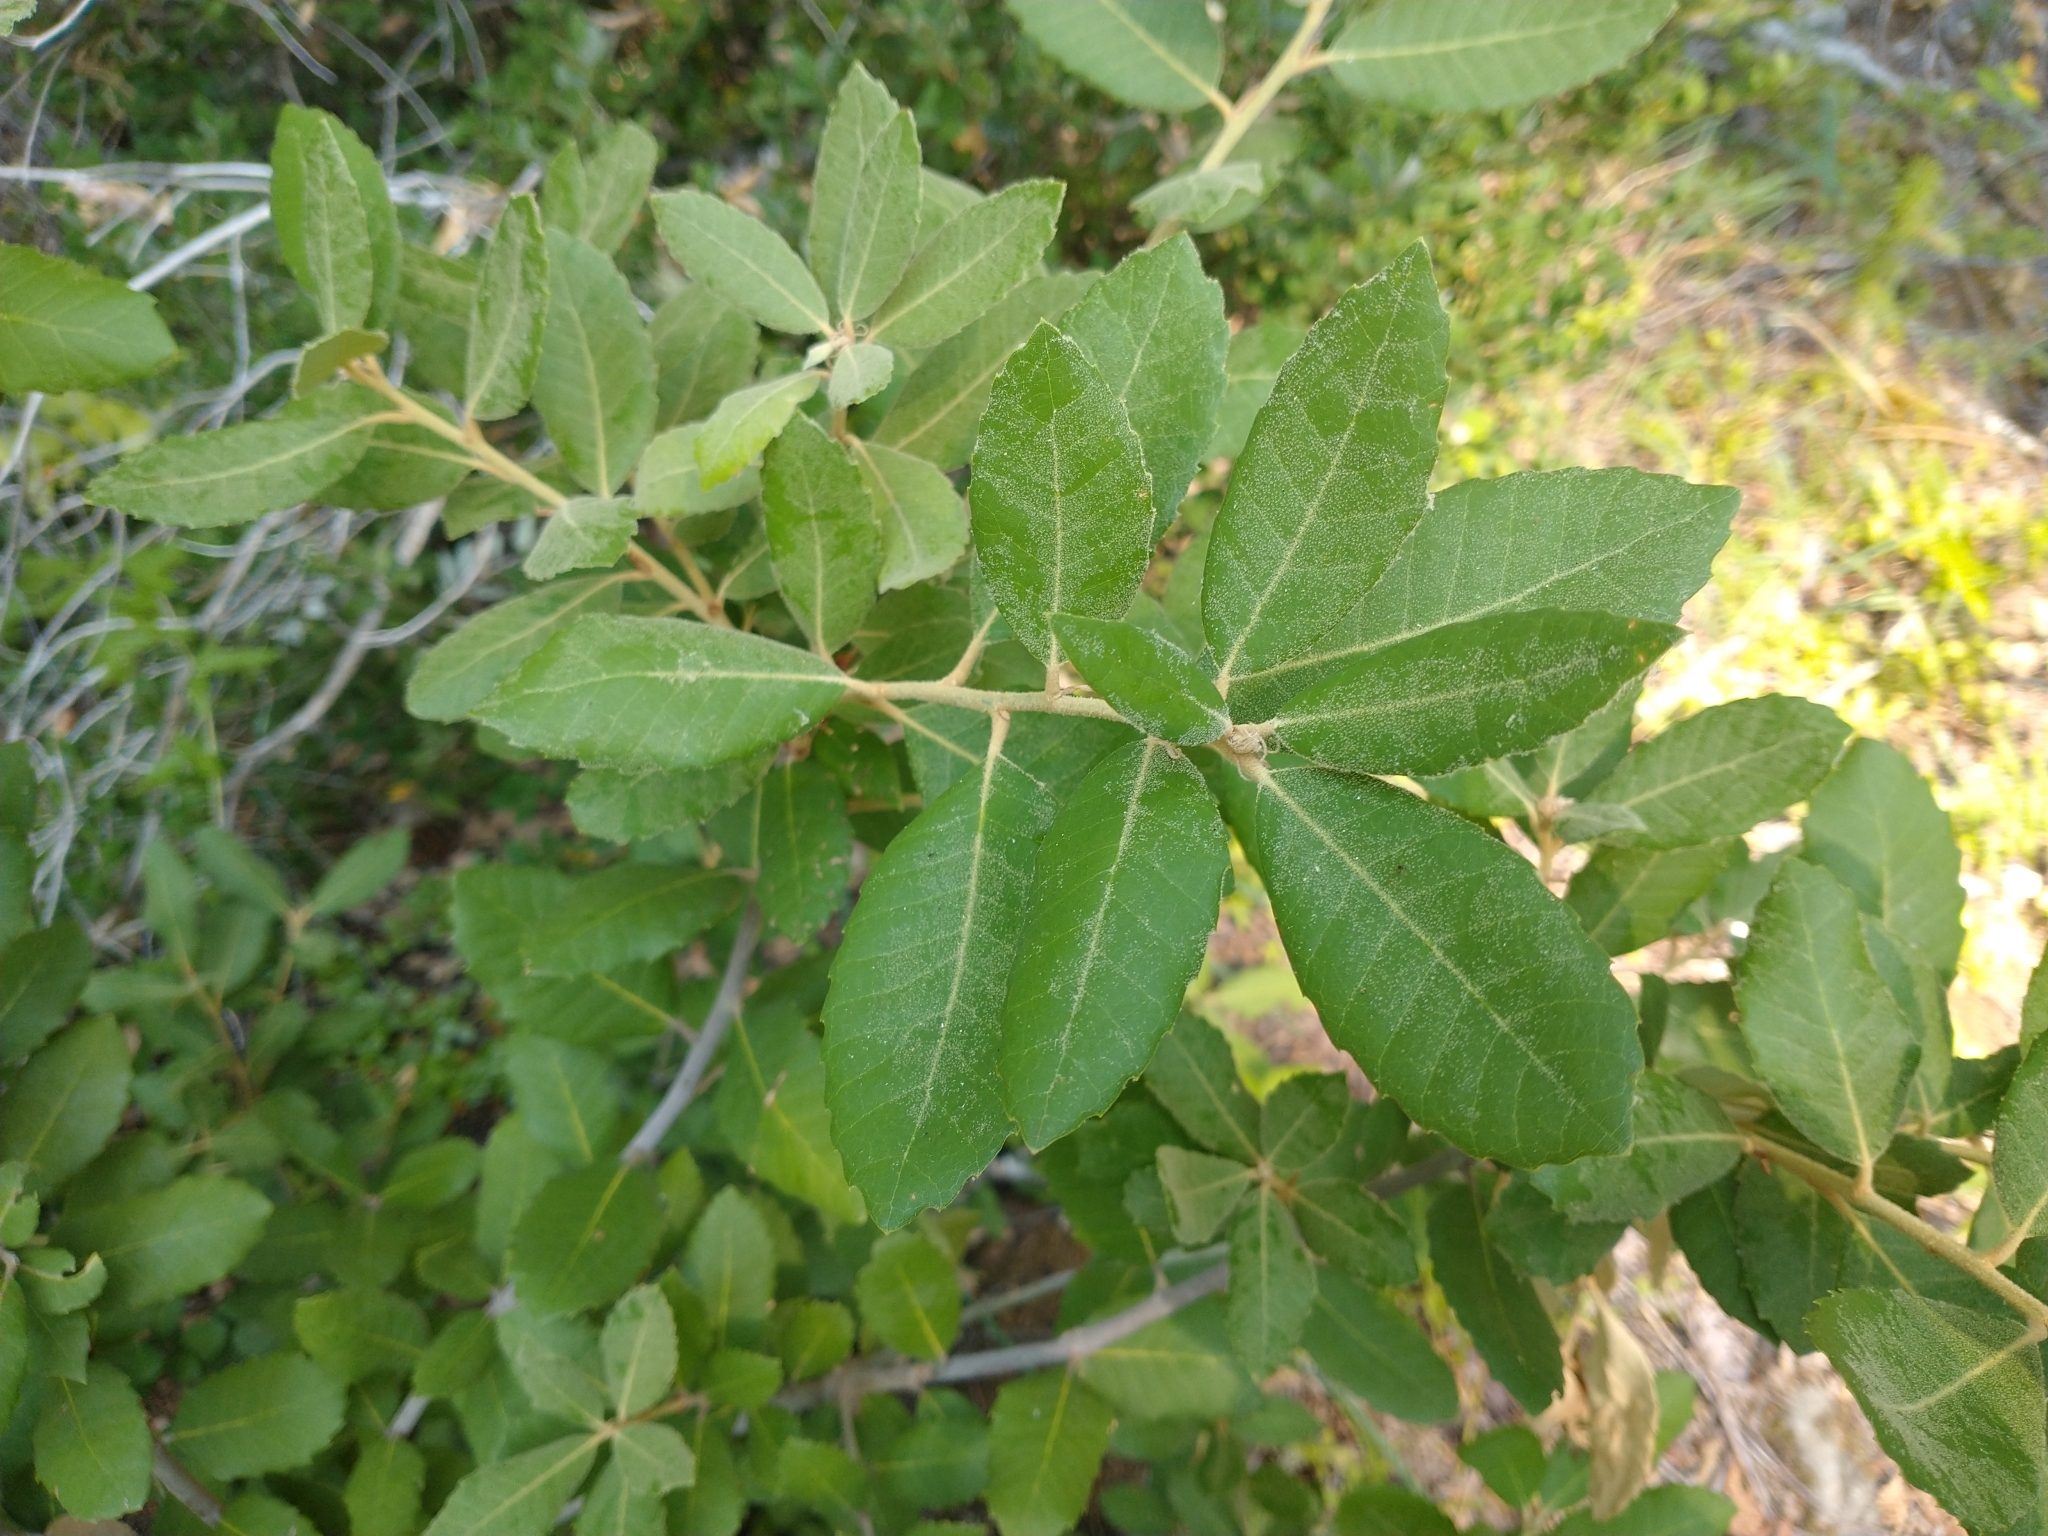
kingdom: Plantae
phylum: Tracheophyta
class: Magnoliopsida
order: Fagales
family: Fagaceae
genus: Notholithocarpus
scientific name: Notholithocarpus densiflorus
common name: Tan bark oak
